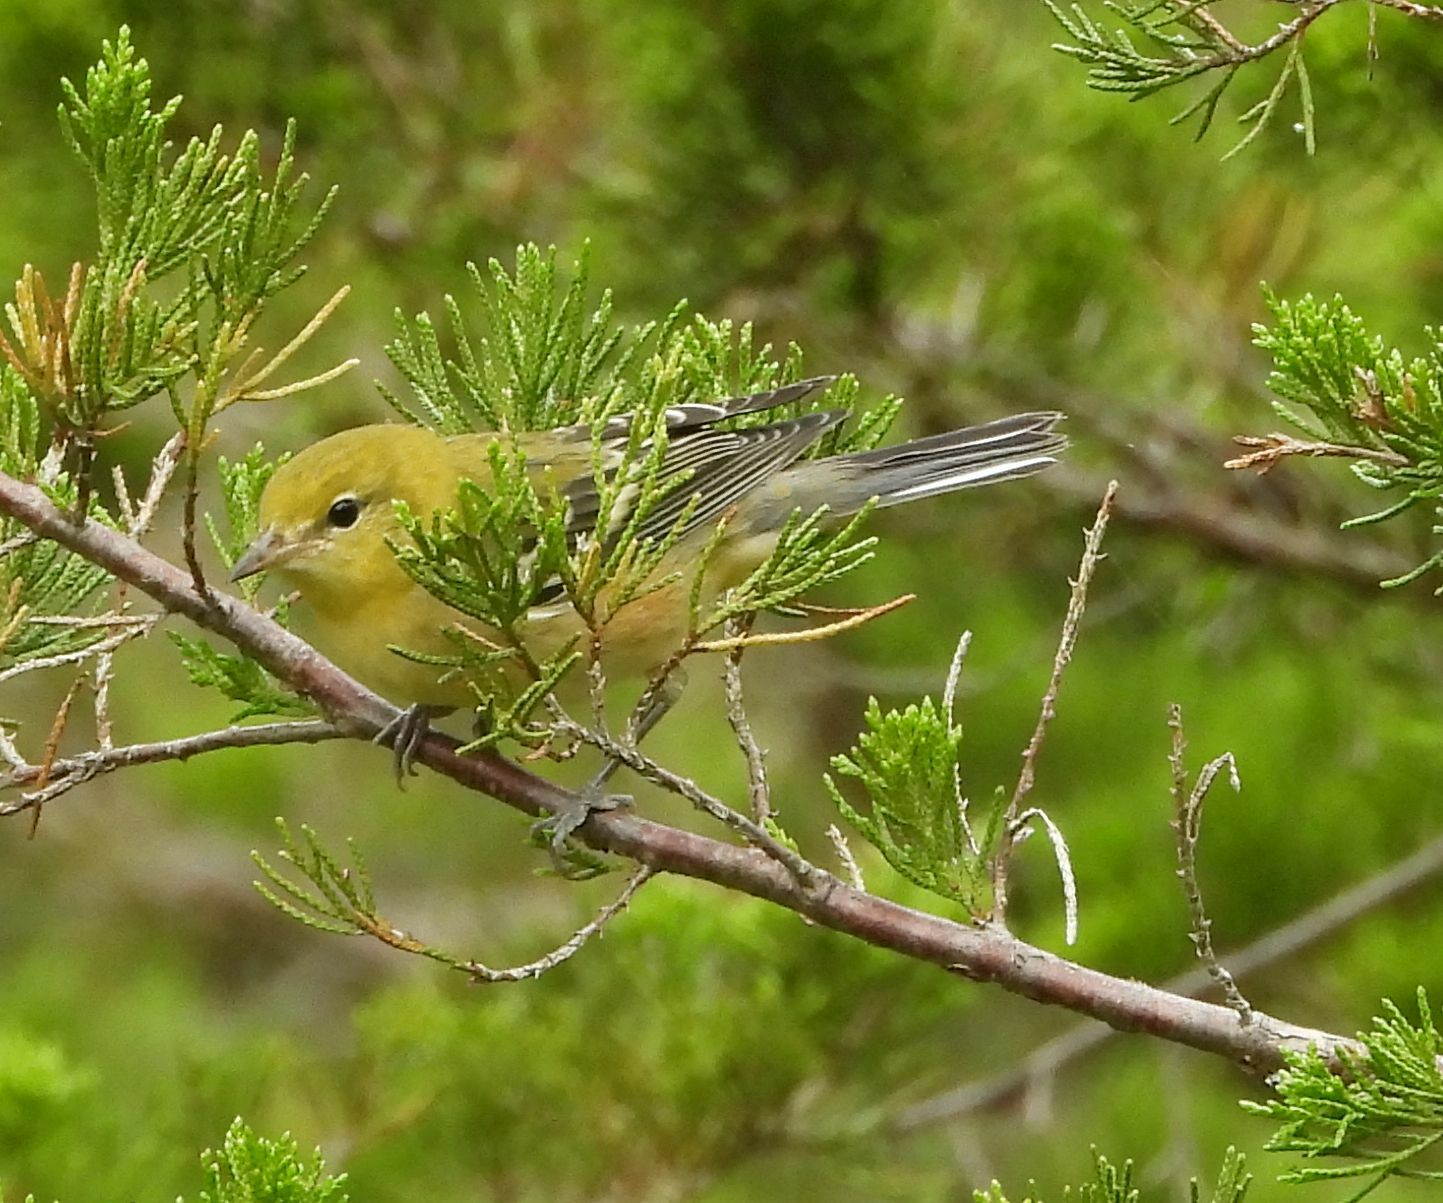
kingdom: Animalia
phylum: Chordata
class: Aves
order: Passeriformes
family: Parulidae
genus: Setophaga
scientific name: Setophaga castanea
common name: Bay-breasted warbler
